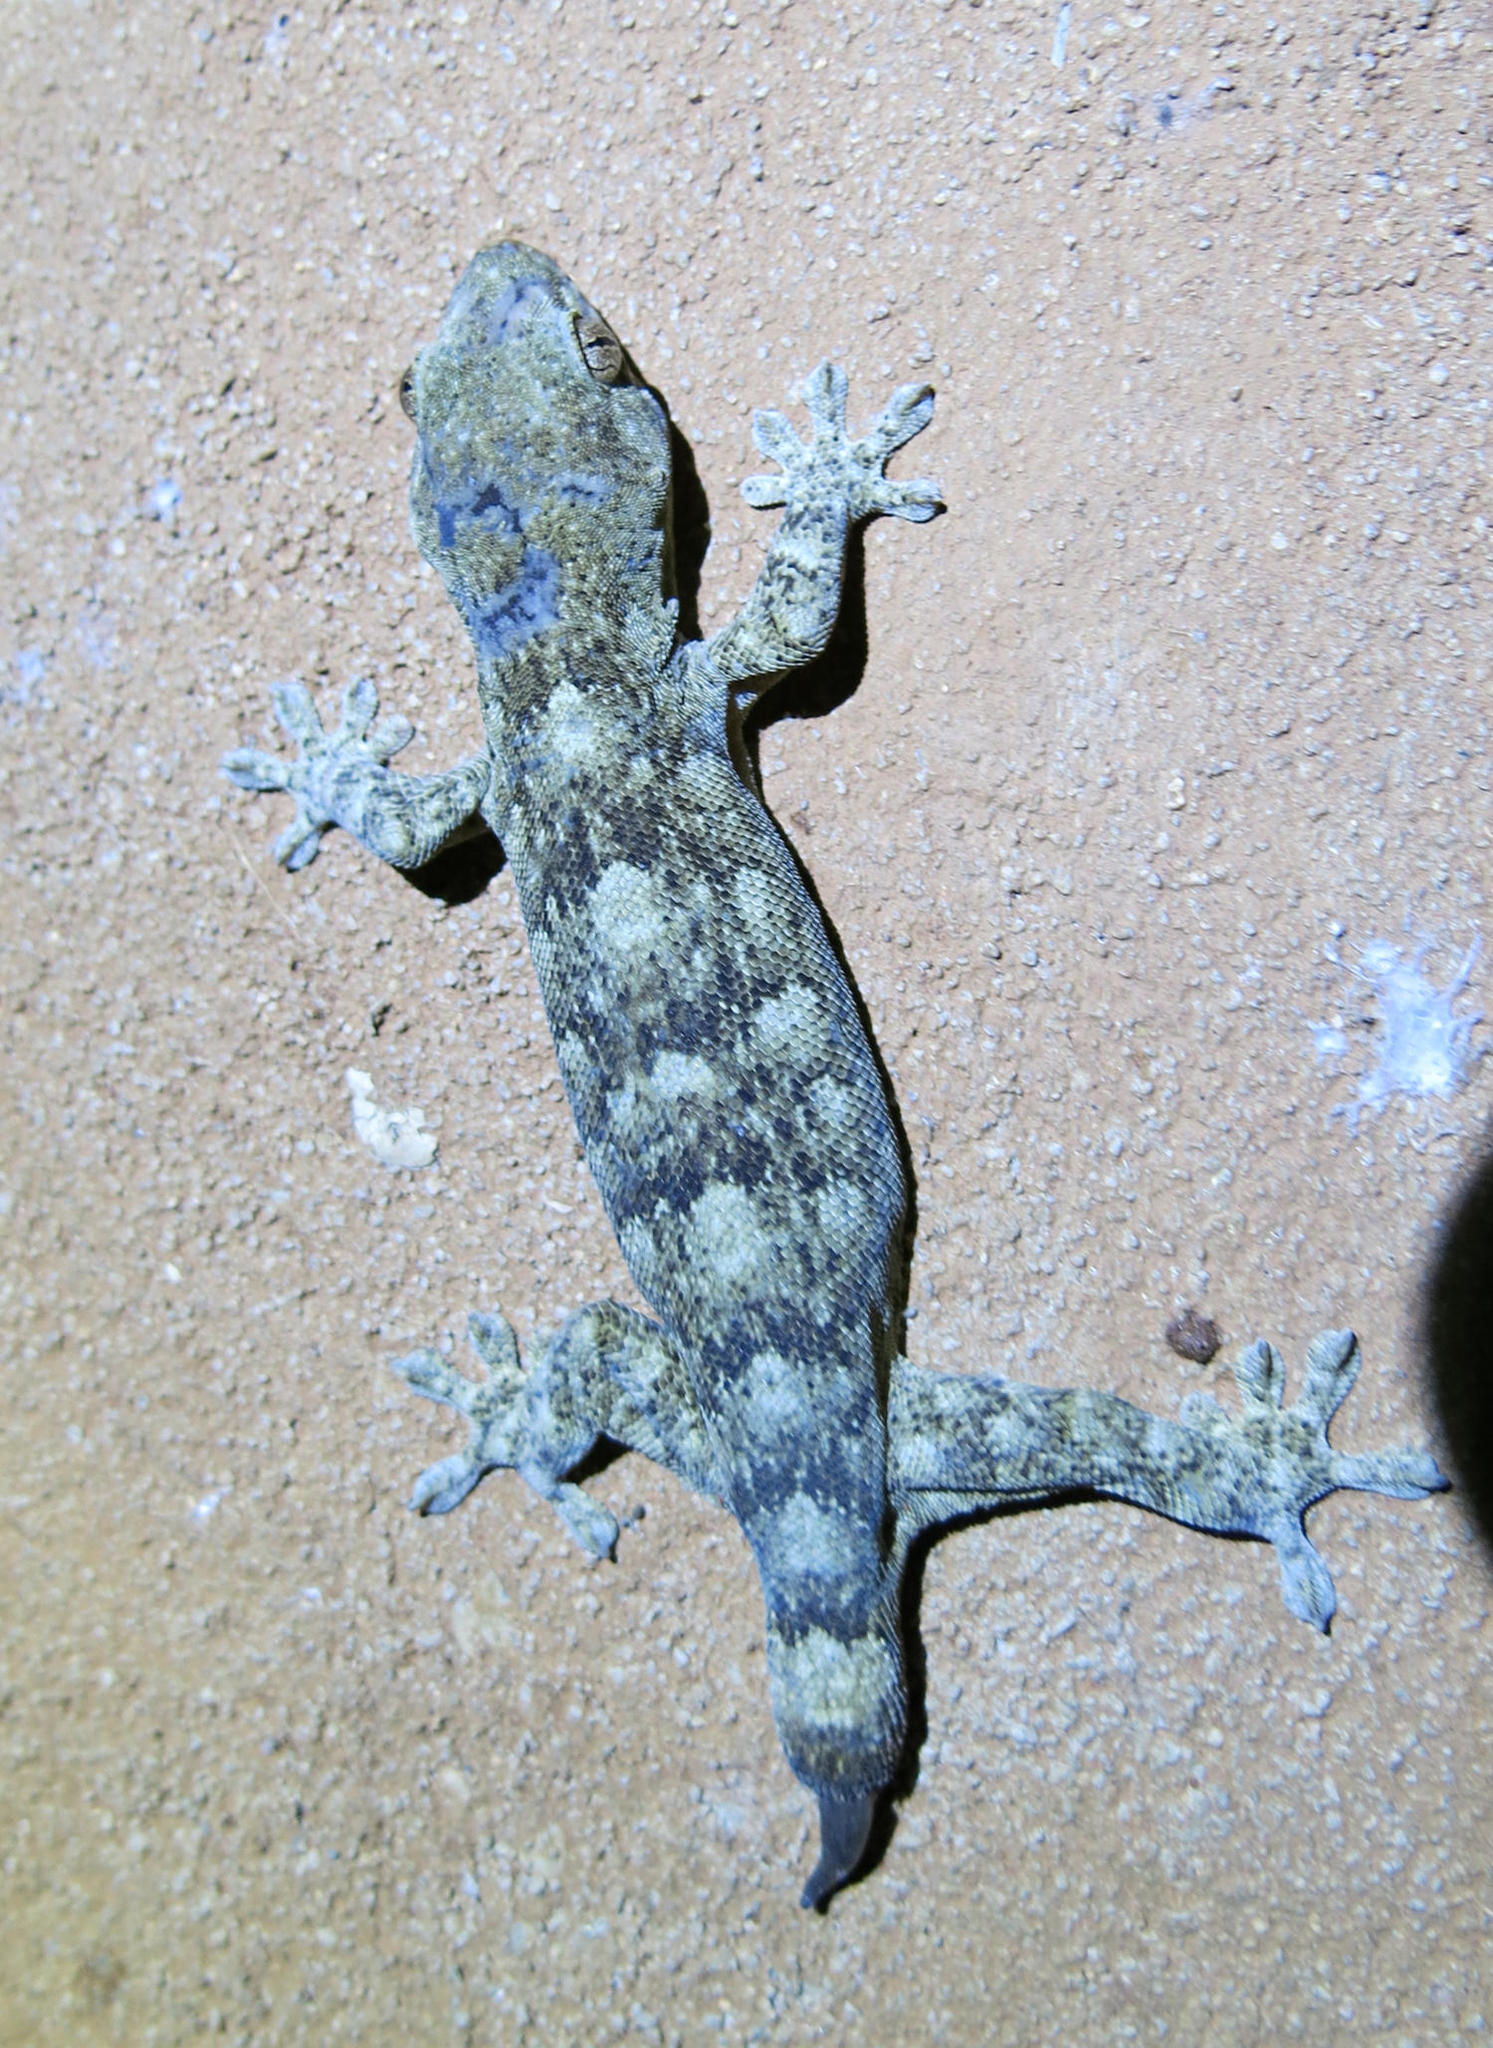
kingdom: Animalia
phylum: Chordata
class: Squamata
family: Gekkonidae
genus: Homopholis
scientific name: Homopholis walbergii
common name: Wahlberg’s velvet gecko
